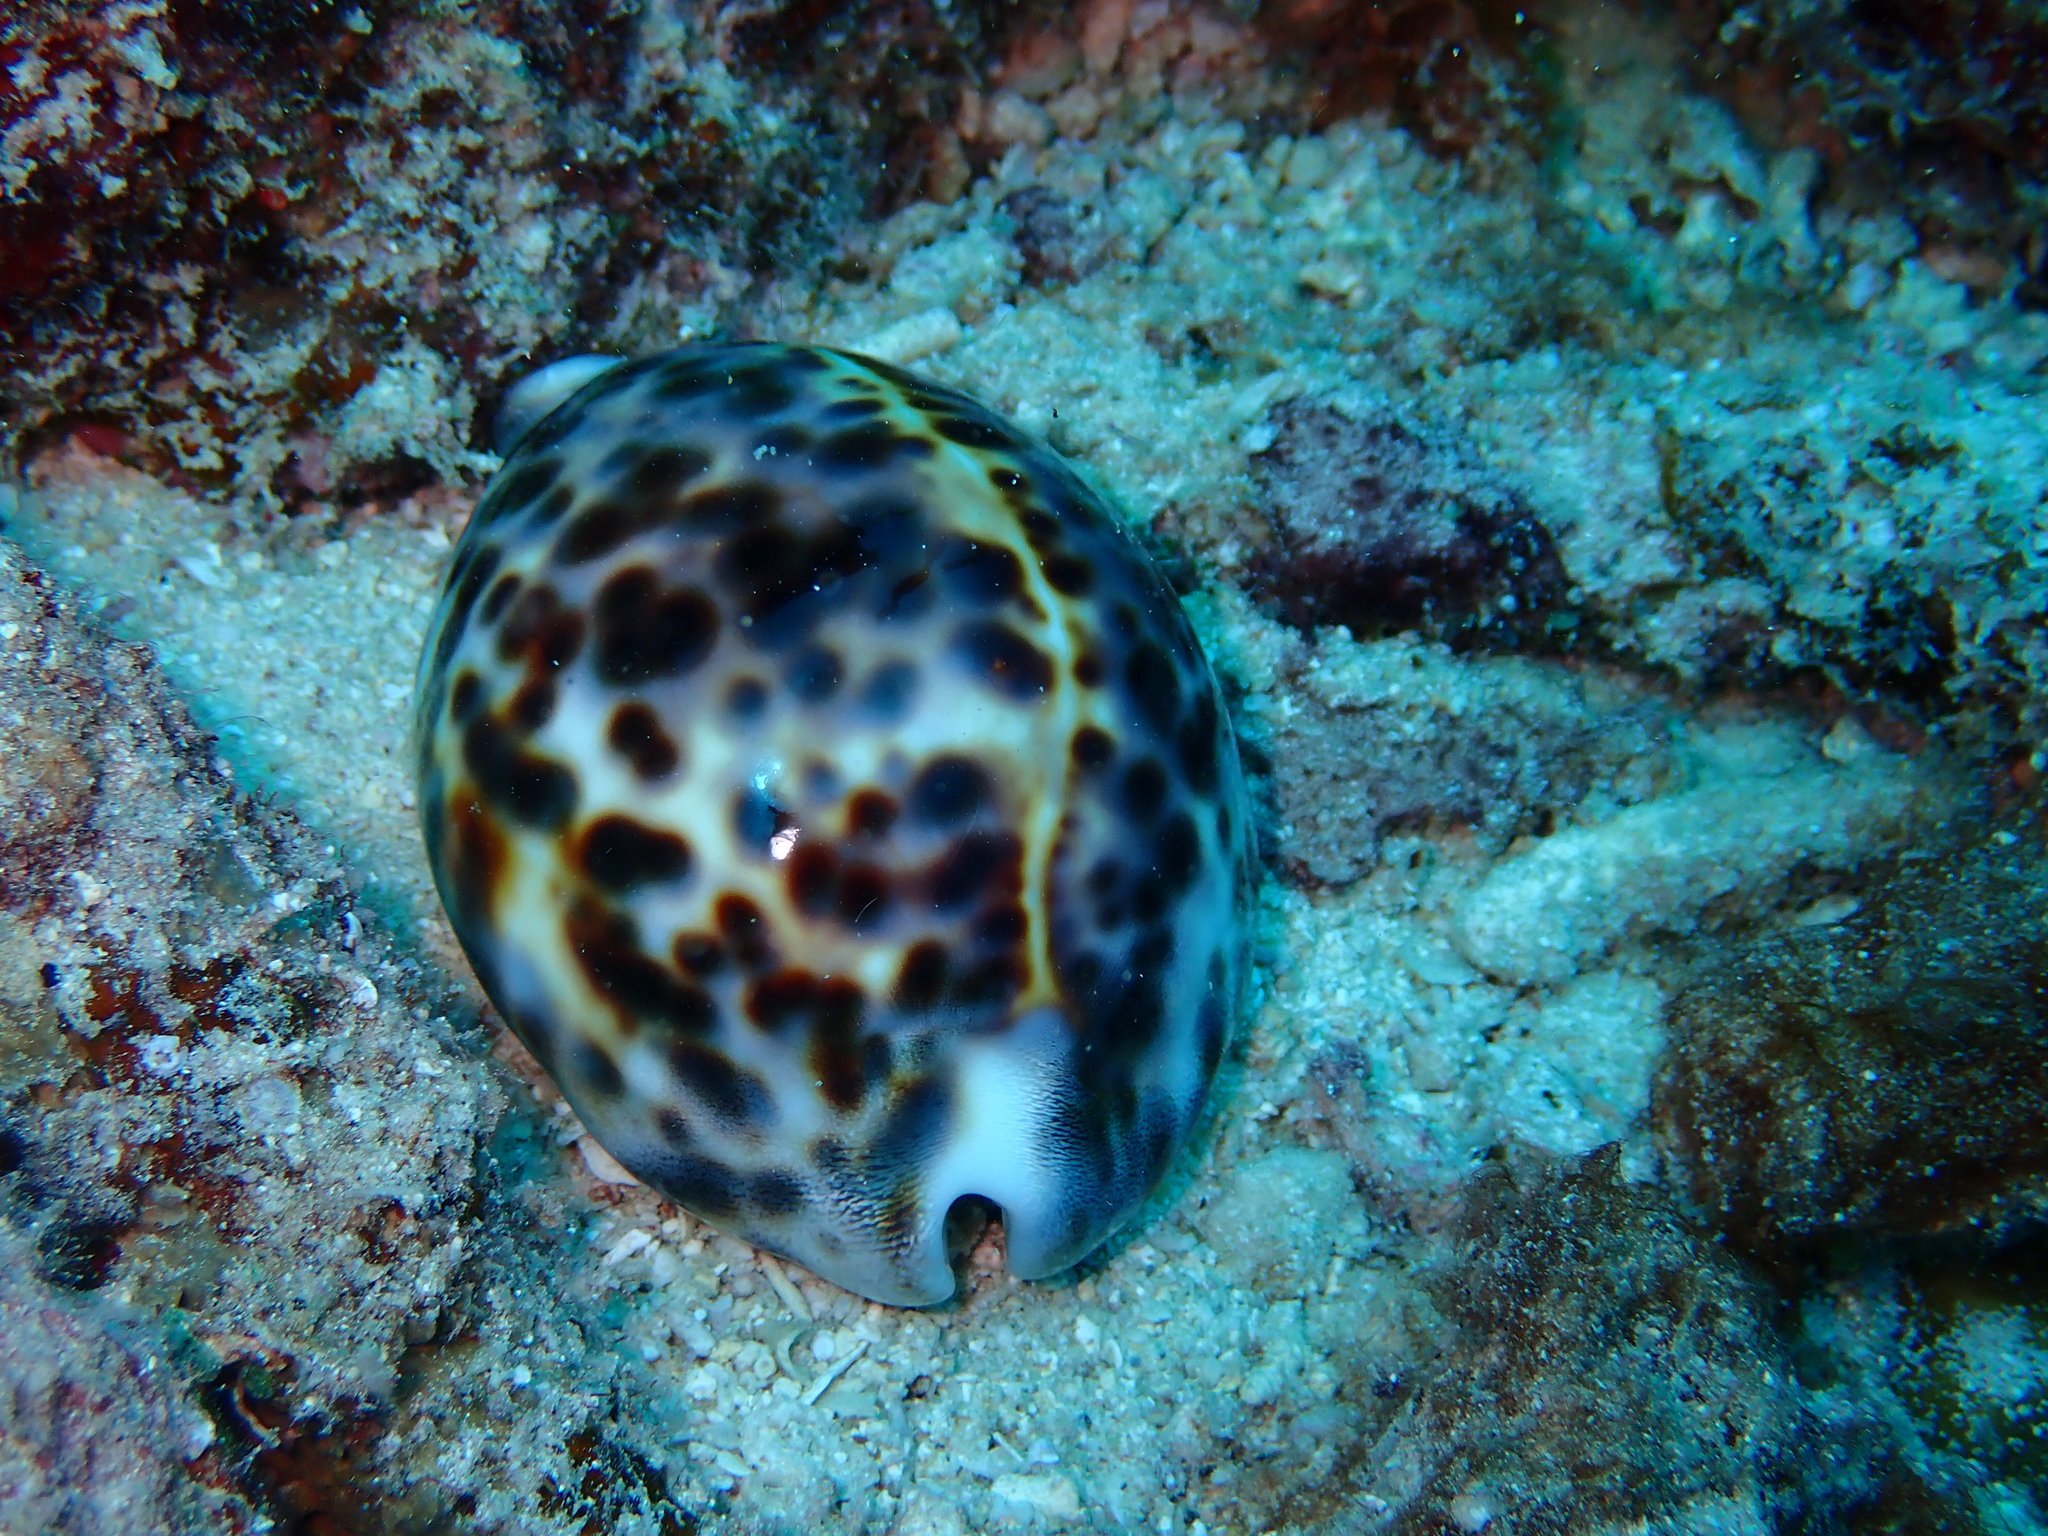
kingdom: Animalia
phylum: Mollusca
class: Gastropoda
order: Littorinimorpha
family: Cypraeidae
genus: Cypraea
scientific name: Cypraea tigris
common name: Tiger cowrie
